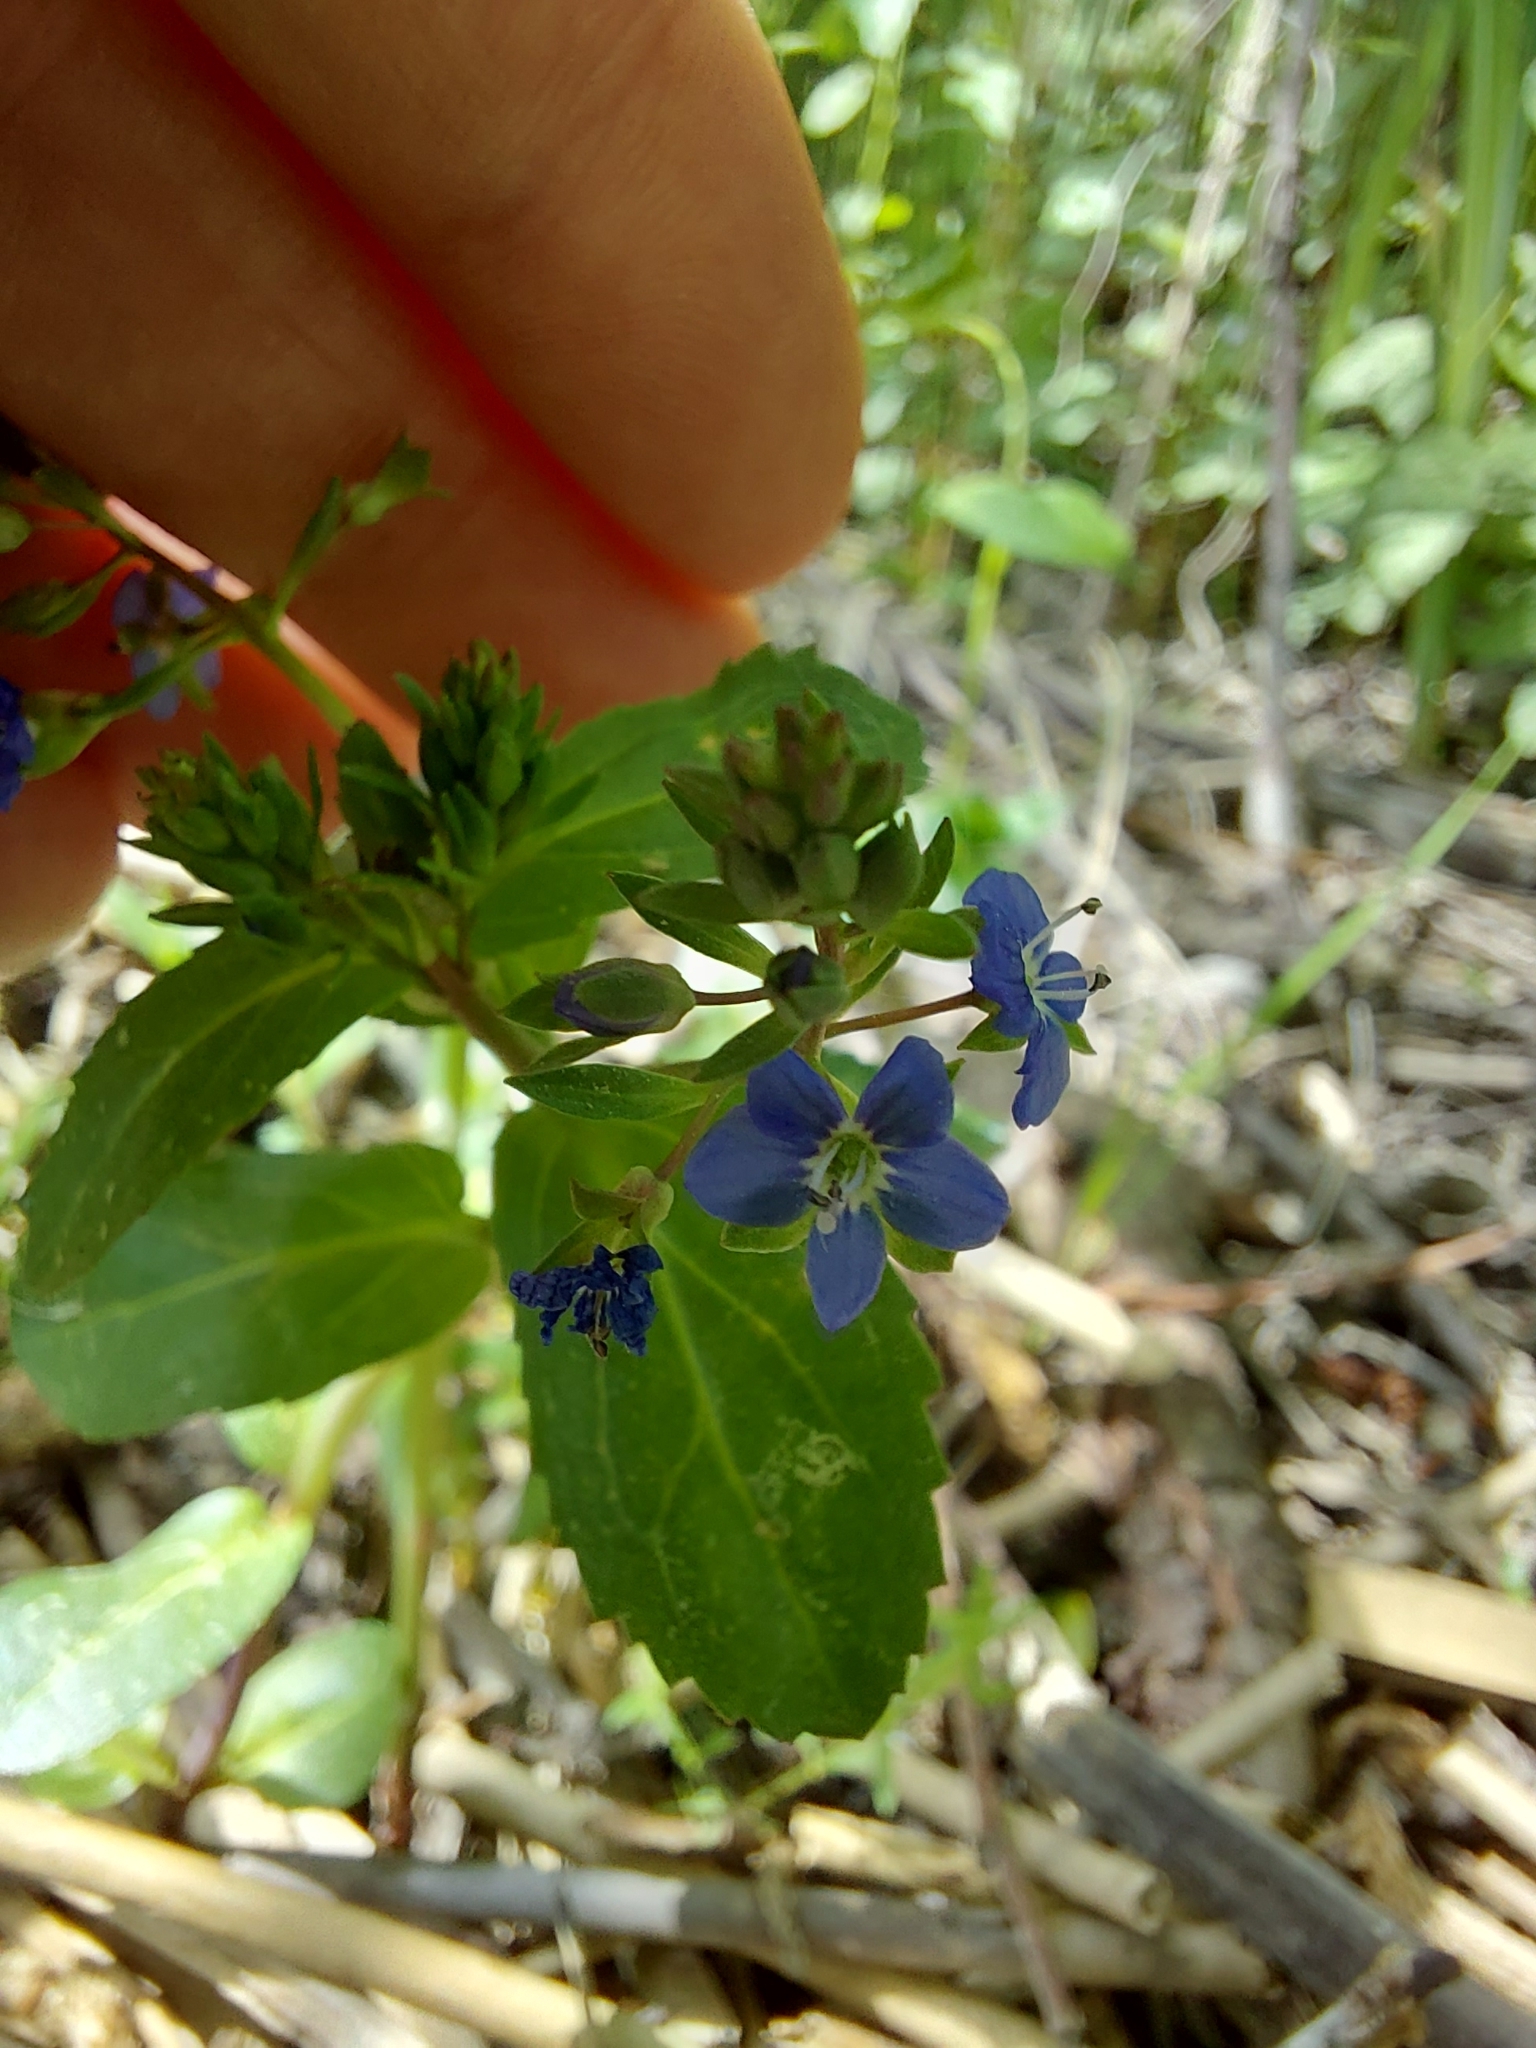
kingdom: Plantae
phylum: Tracheophyta
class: Magnoliopsida
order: Lamiales
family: Plantaginaceae
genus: Veronica
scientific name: Veronica beccabunga
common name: Brooklime
